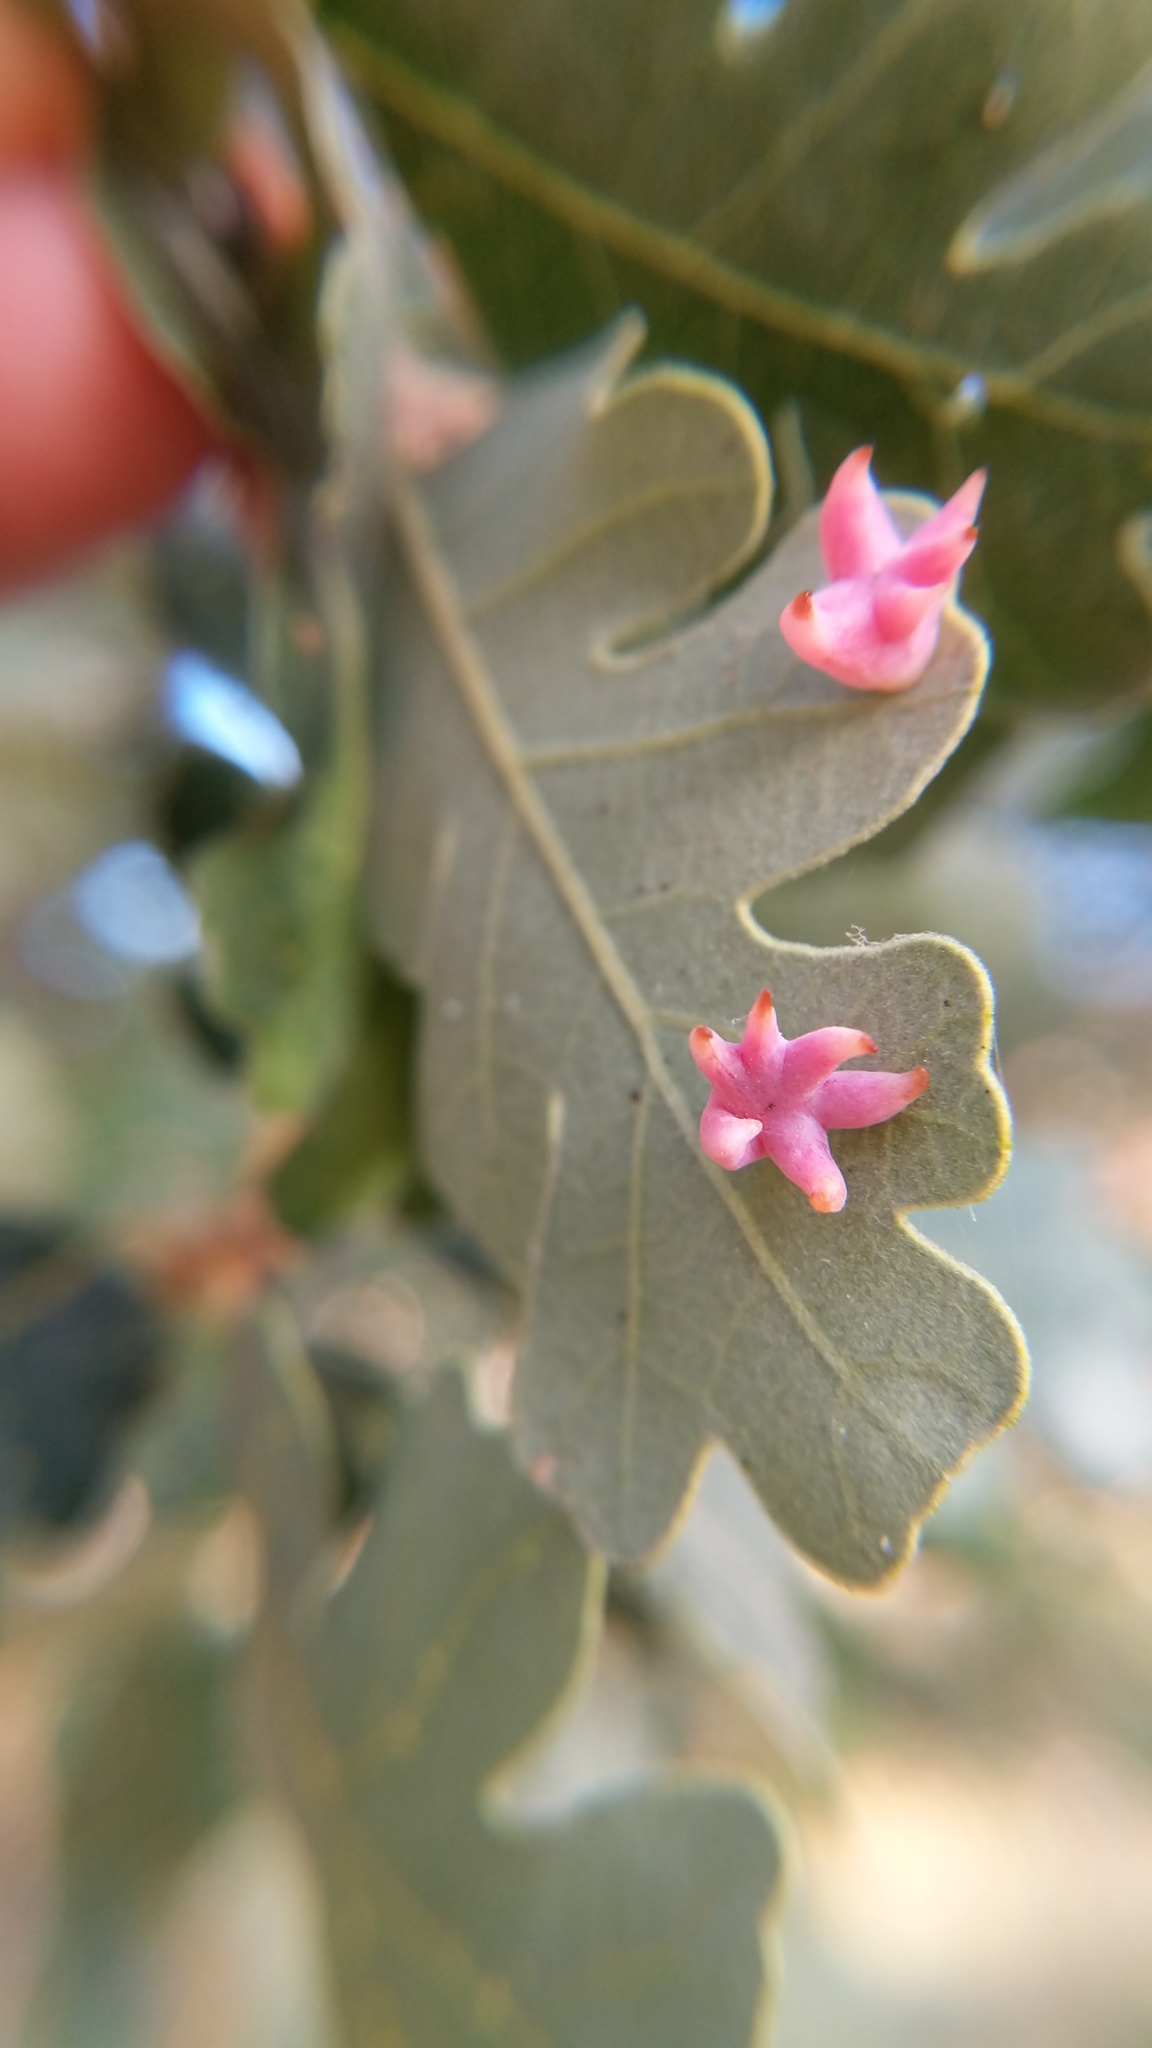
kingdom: Animalia
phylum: Arthropoda
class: Insecta
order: Hymenoptera
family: Cynipidae
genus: Cynips
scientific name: Cynips douglasi
